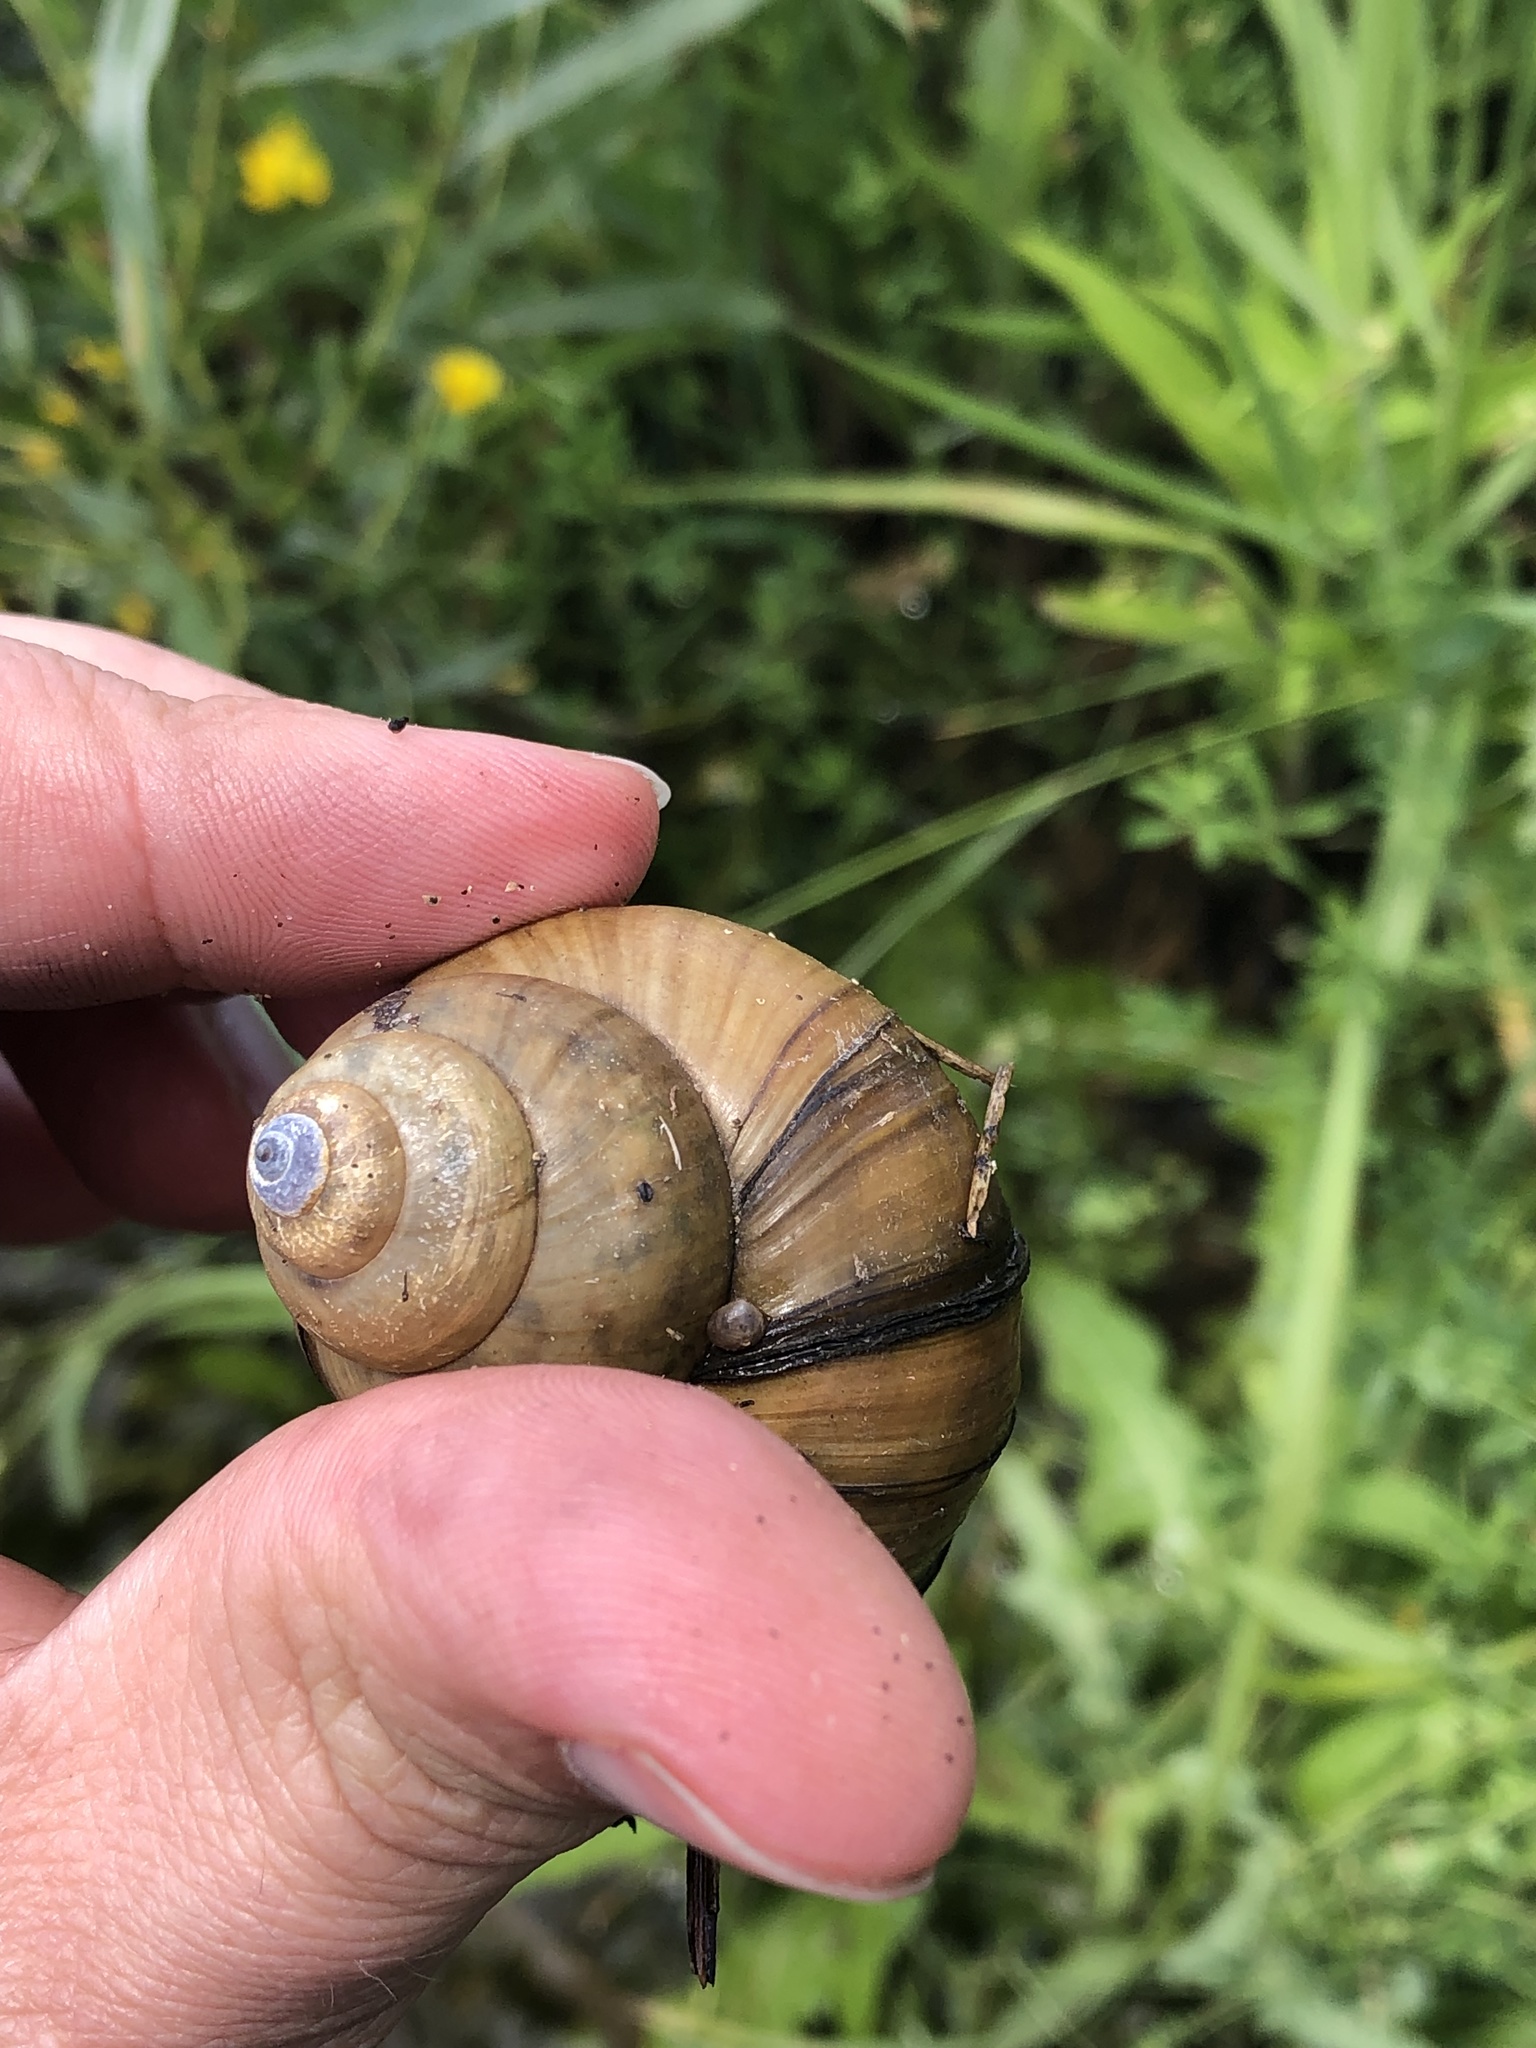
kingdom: Animalia
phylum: Mollusca
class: Gastropoda
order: Architaenioglossa
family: Viviparidae
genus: Cipangopaludina
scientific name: Cipangopaludina chinensis
